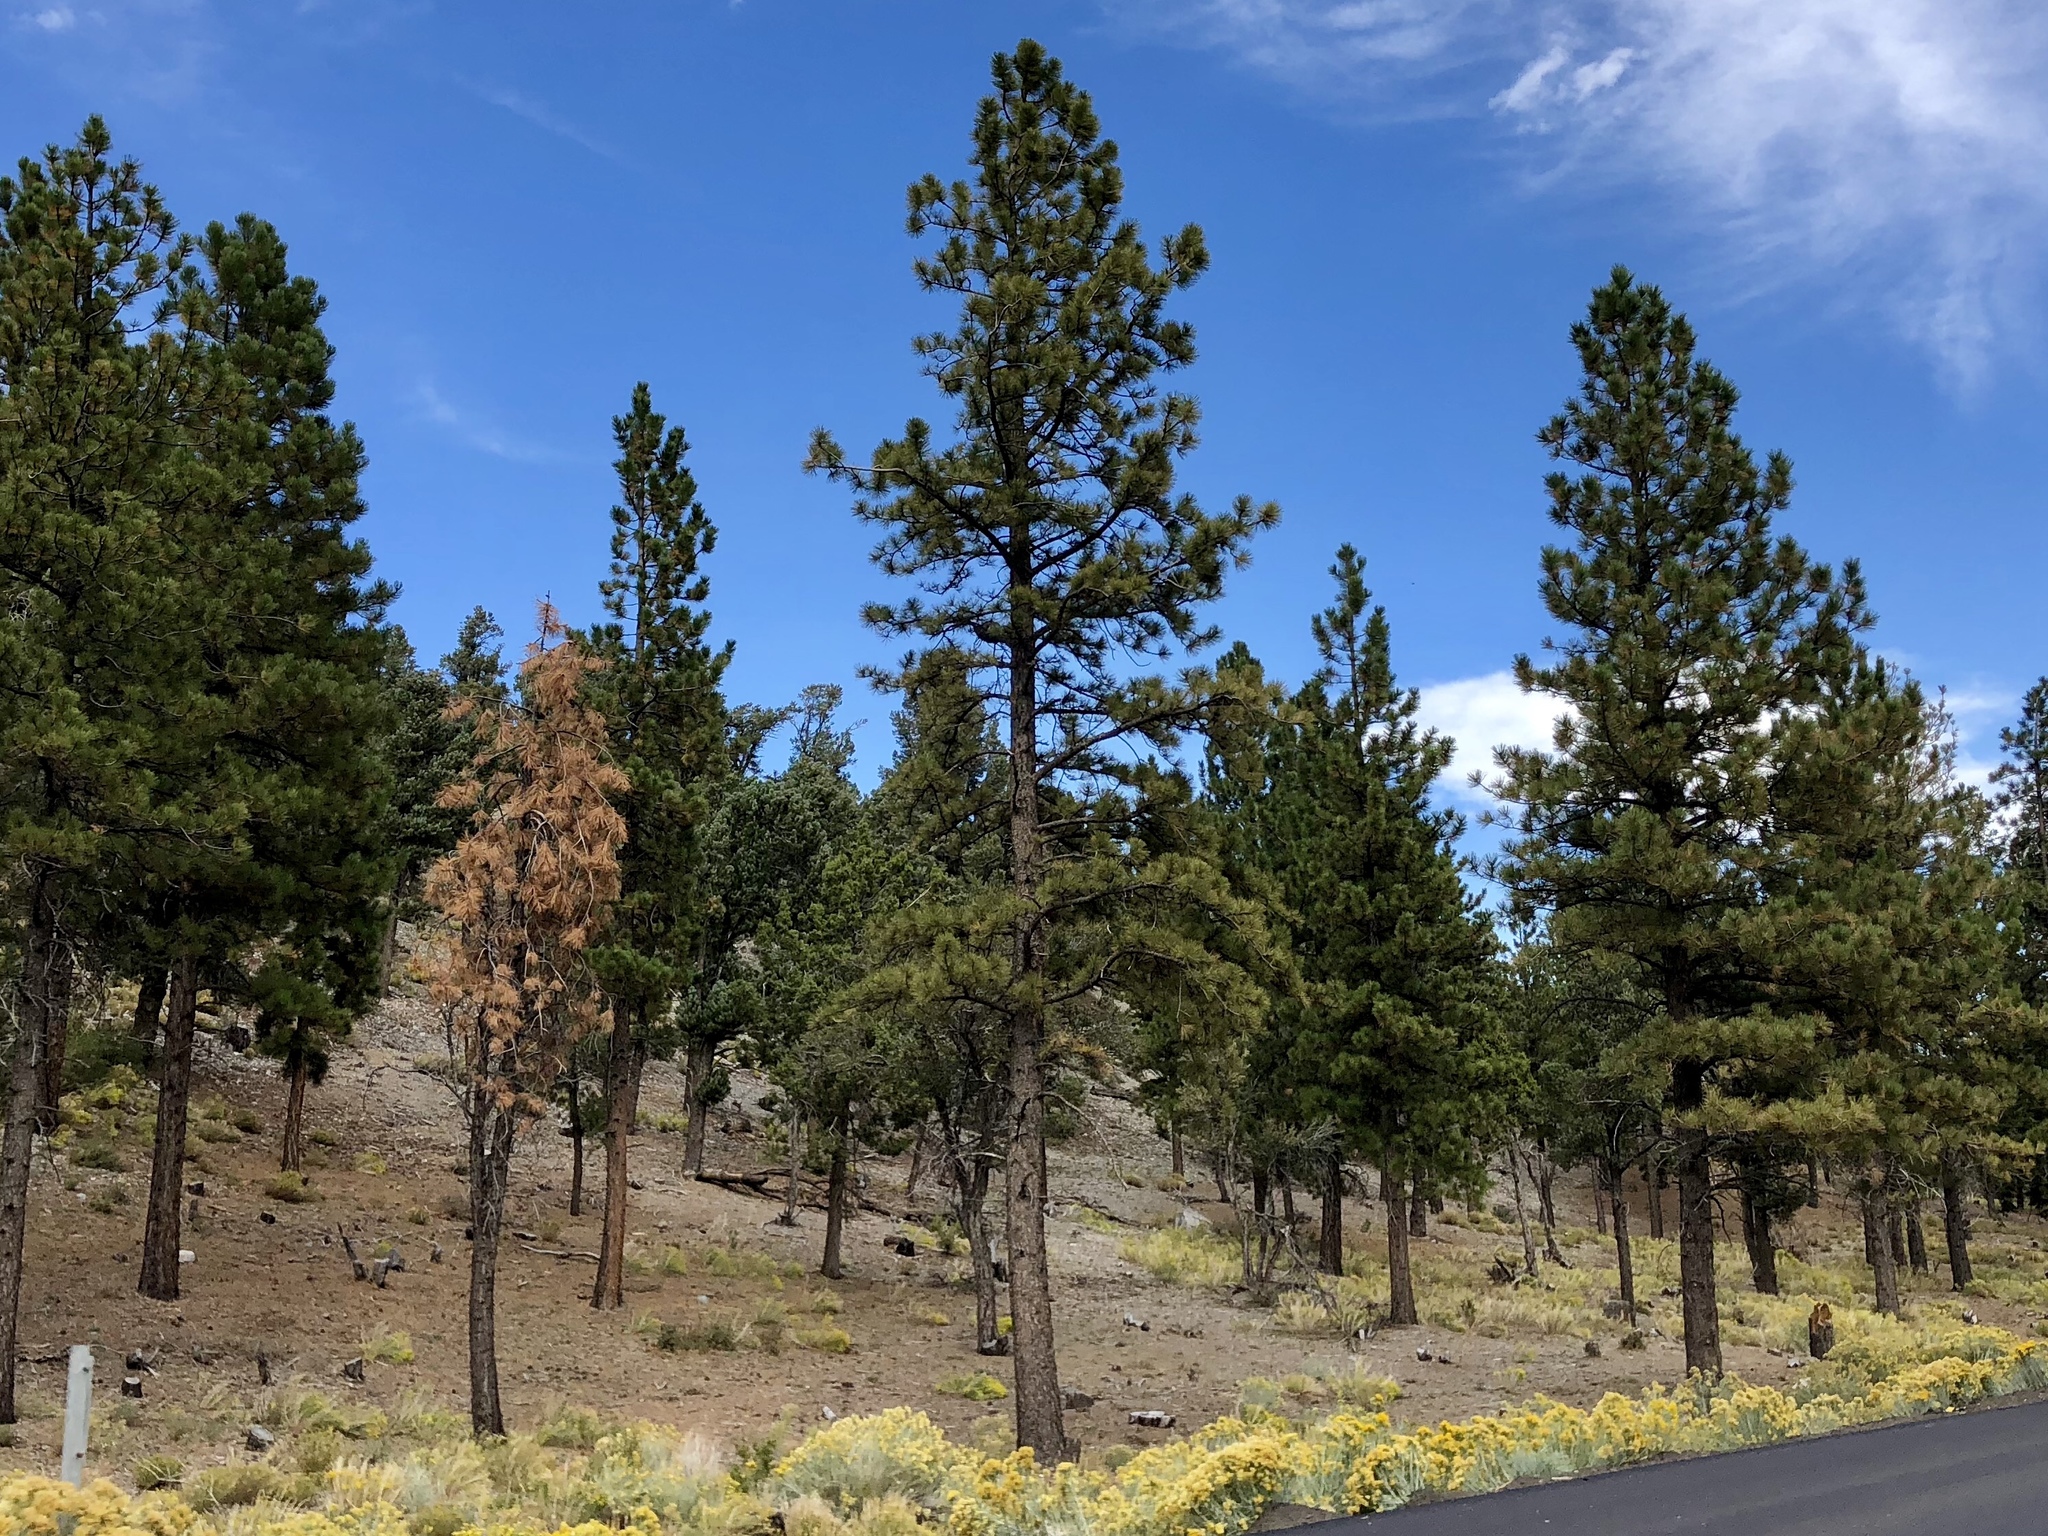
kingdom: Plantae
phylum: Tracheophyta
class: Pinopsida
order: Pinales
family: Pinaceae
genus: Pinus
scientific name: Pinus ponderosa
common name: Western yellow-pine
